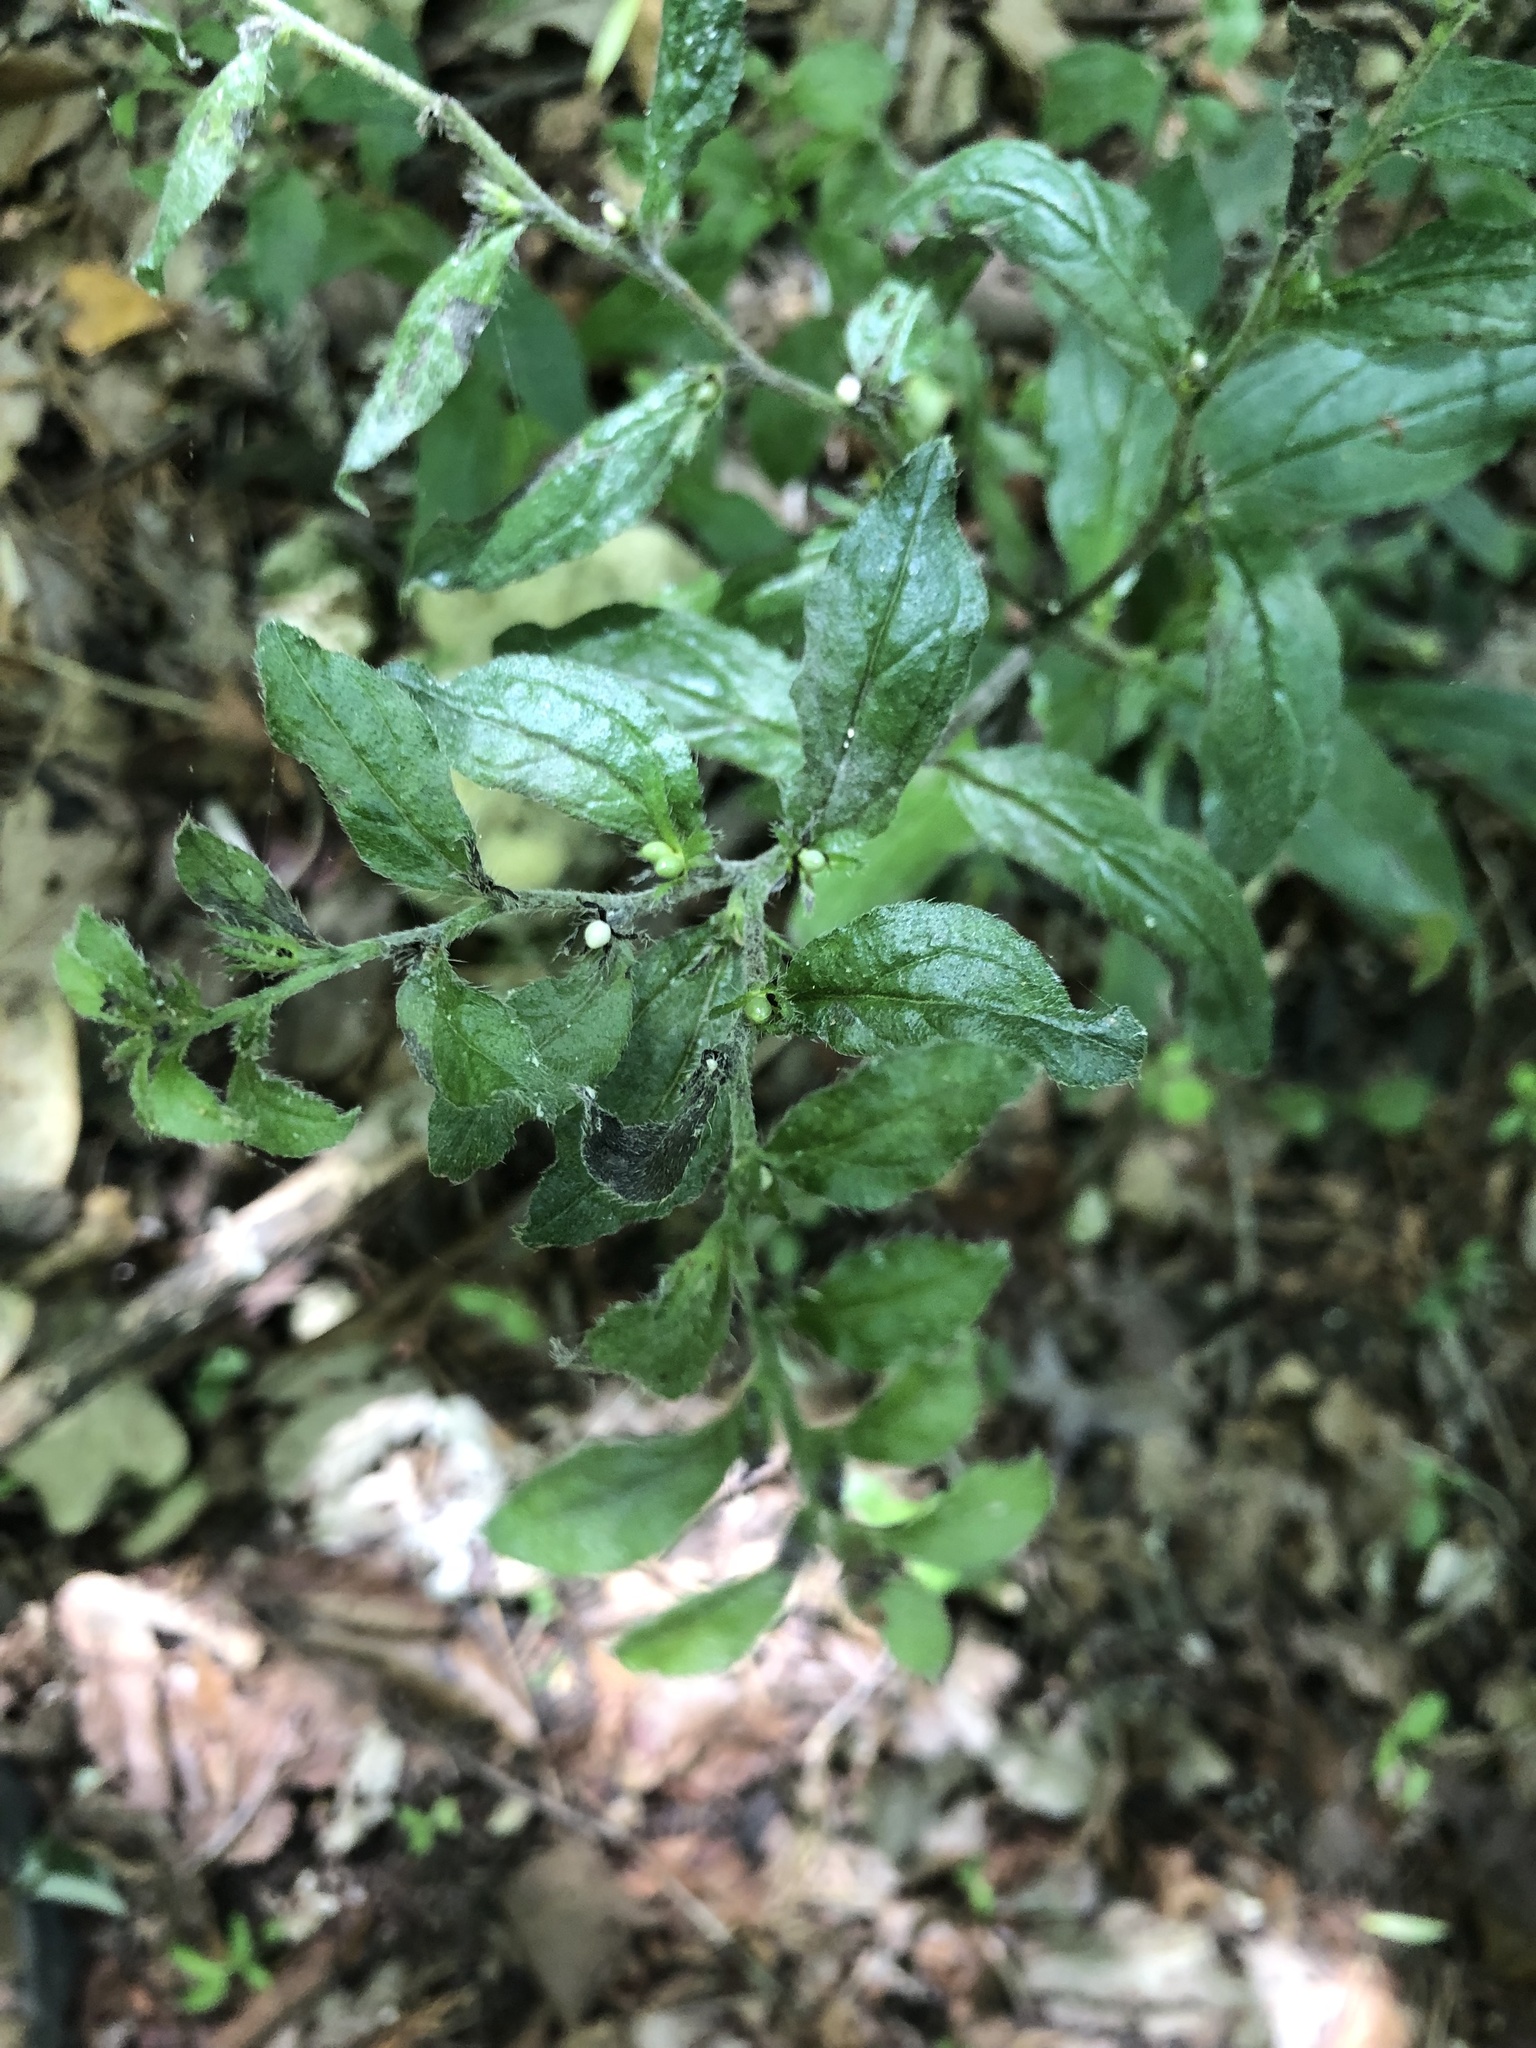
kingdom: Plantae
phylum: Tracheophyta
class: Magnoliopsida
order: Boraginales
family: Boraginaceae
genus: Lithospermum
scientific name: Lithospermum tuberosum
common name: Southern stoneseed
